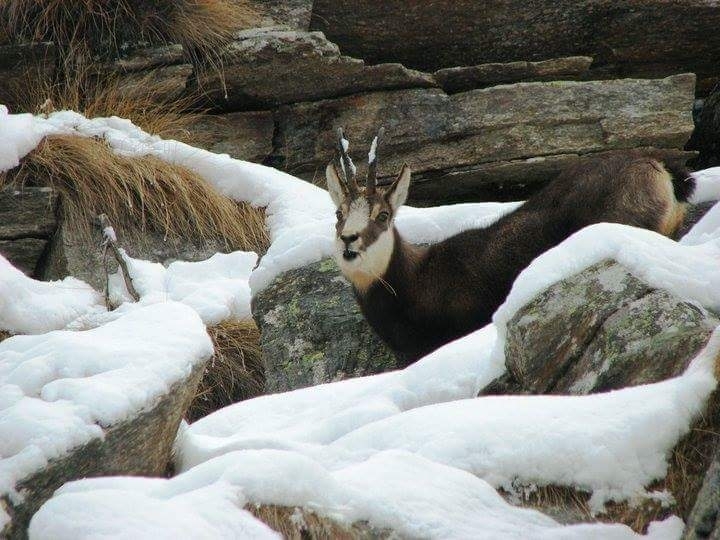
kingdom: Animalia
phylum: Chordata
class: Mammalia
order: Artiodactyla
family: Bovidae
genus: Rupicapra
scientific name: Rupicapra rupicapra
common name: Chamois
